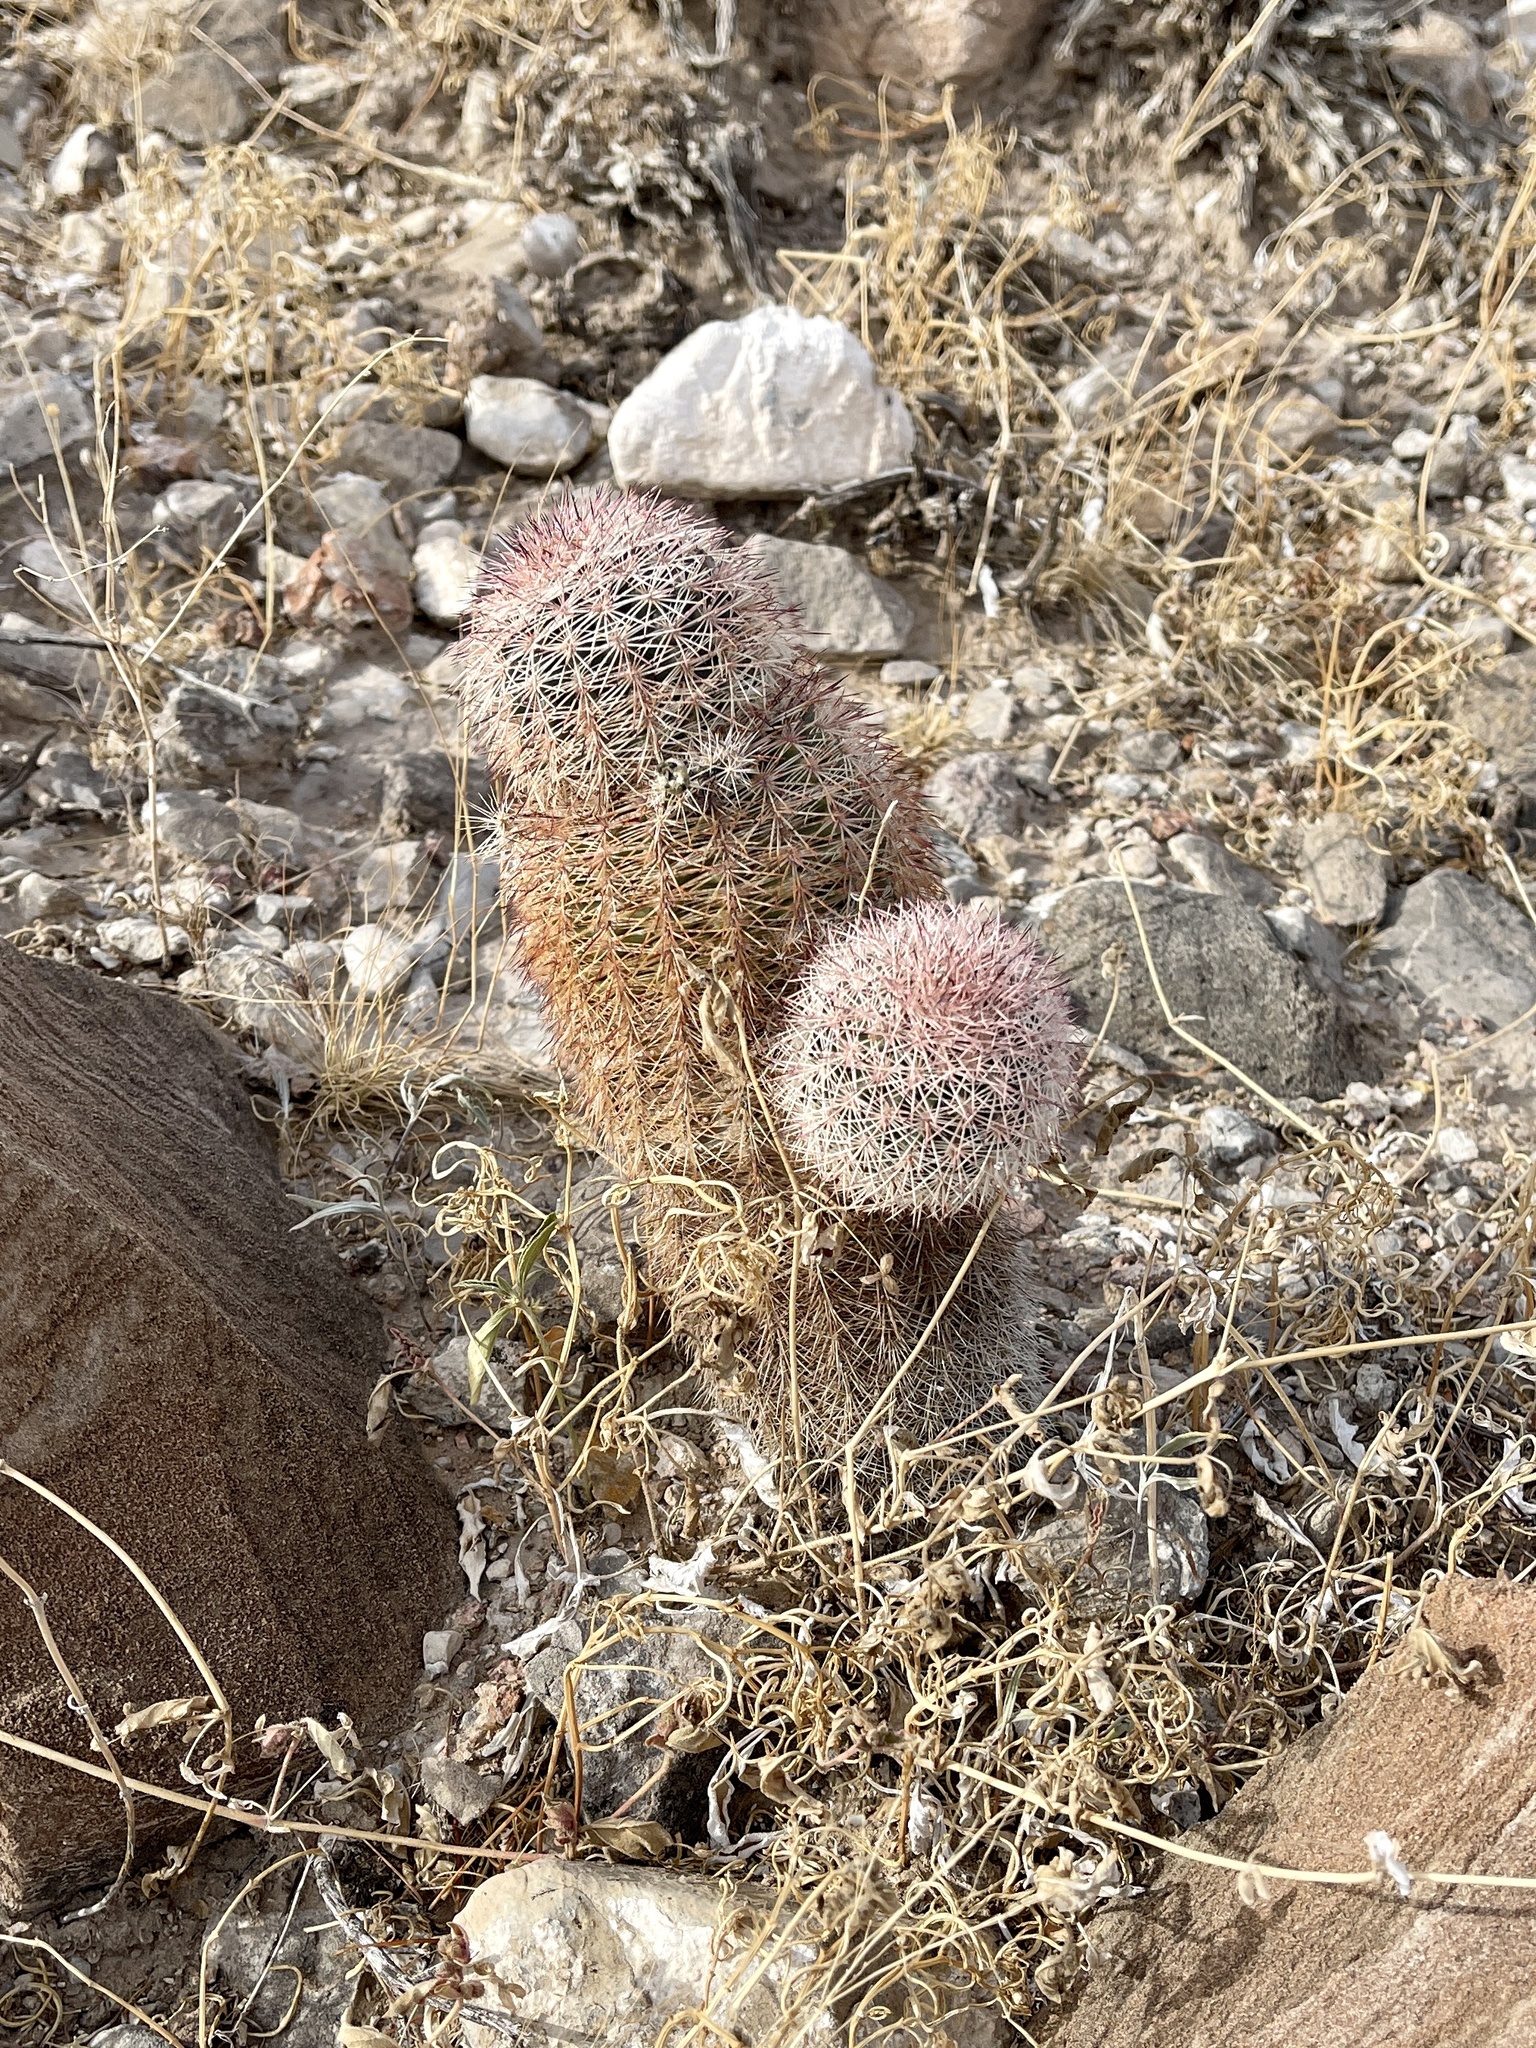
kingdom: Plantae
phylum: Tracheophyta
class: Magnoliopsida
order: Caryophyllales
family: Cactaceae
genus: Echinocereus
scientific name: Echinocereus dasyacanthus
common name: Spiny hedgehog cactus
